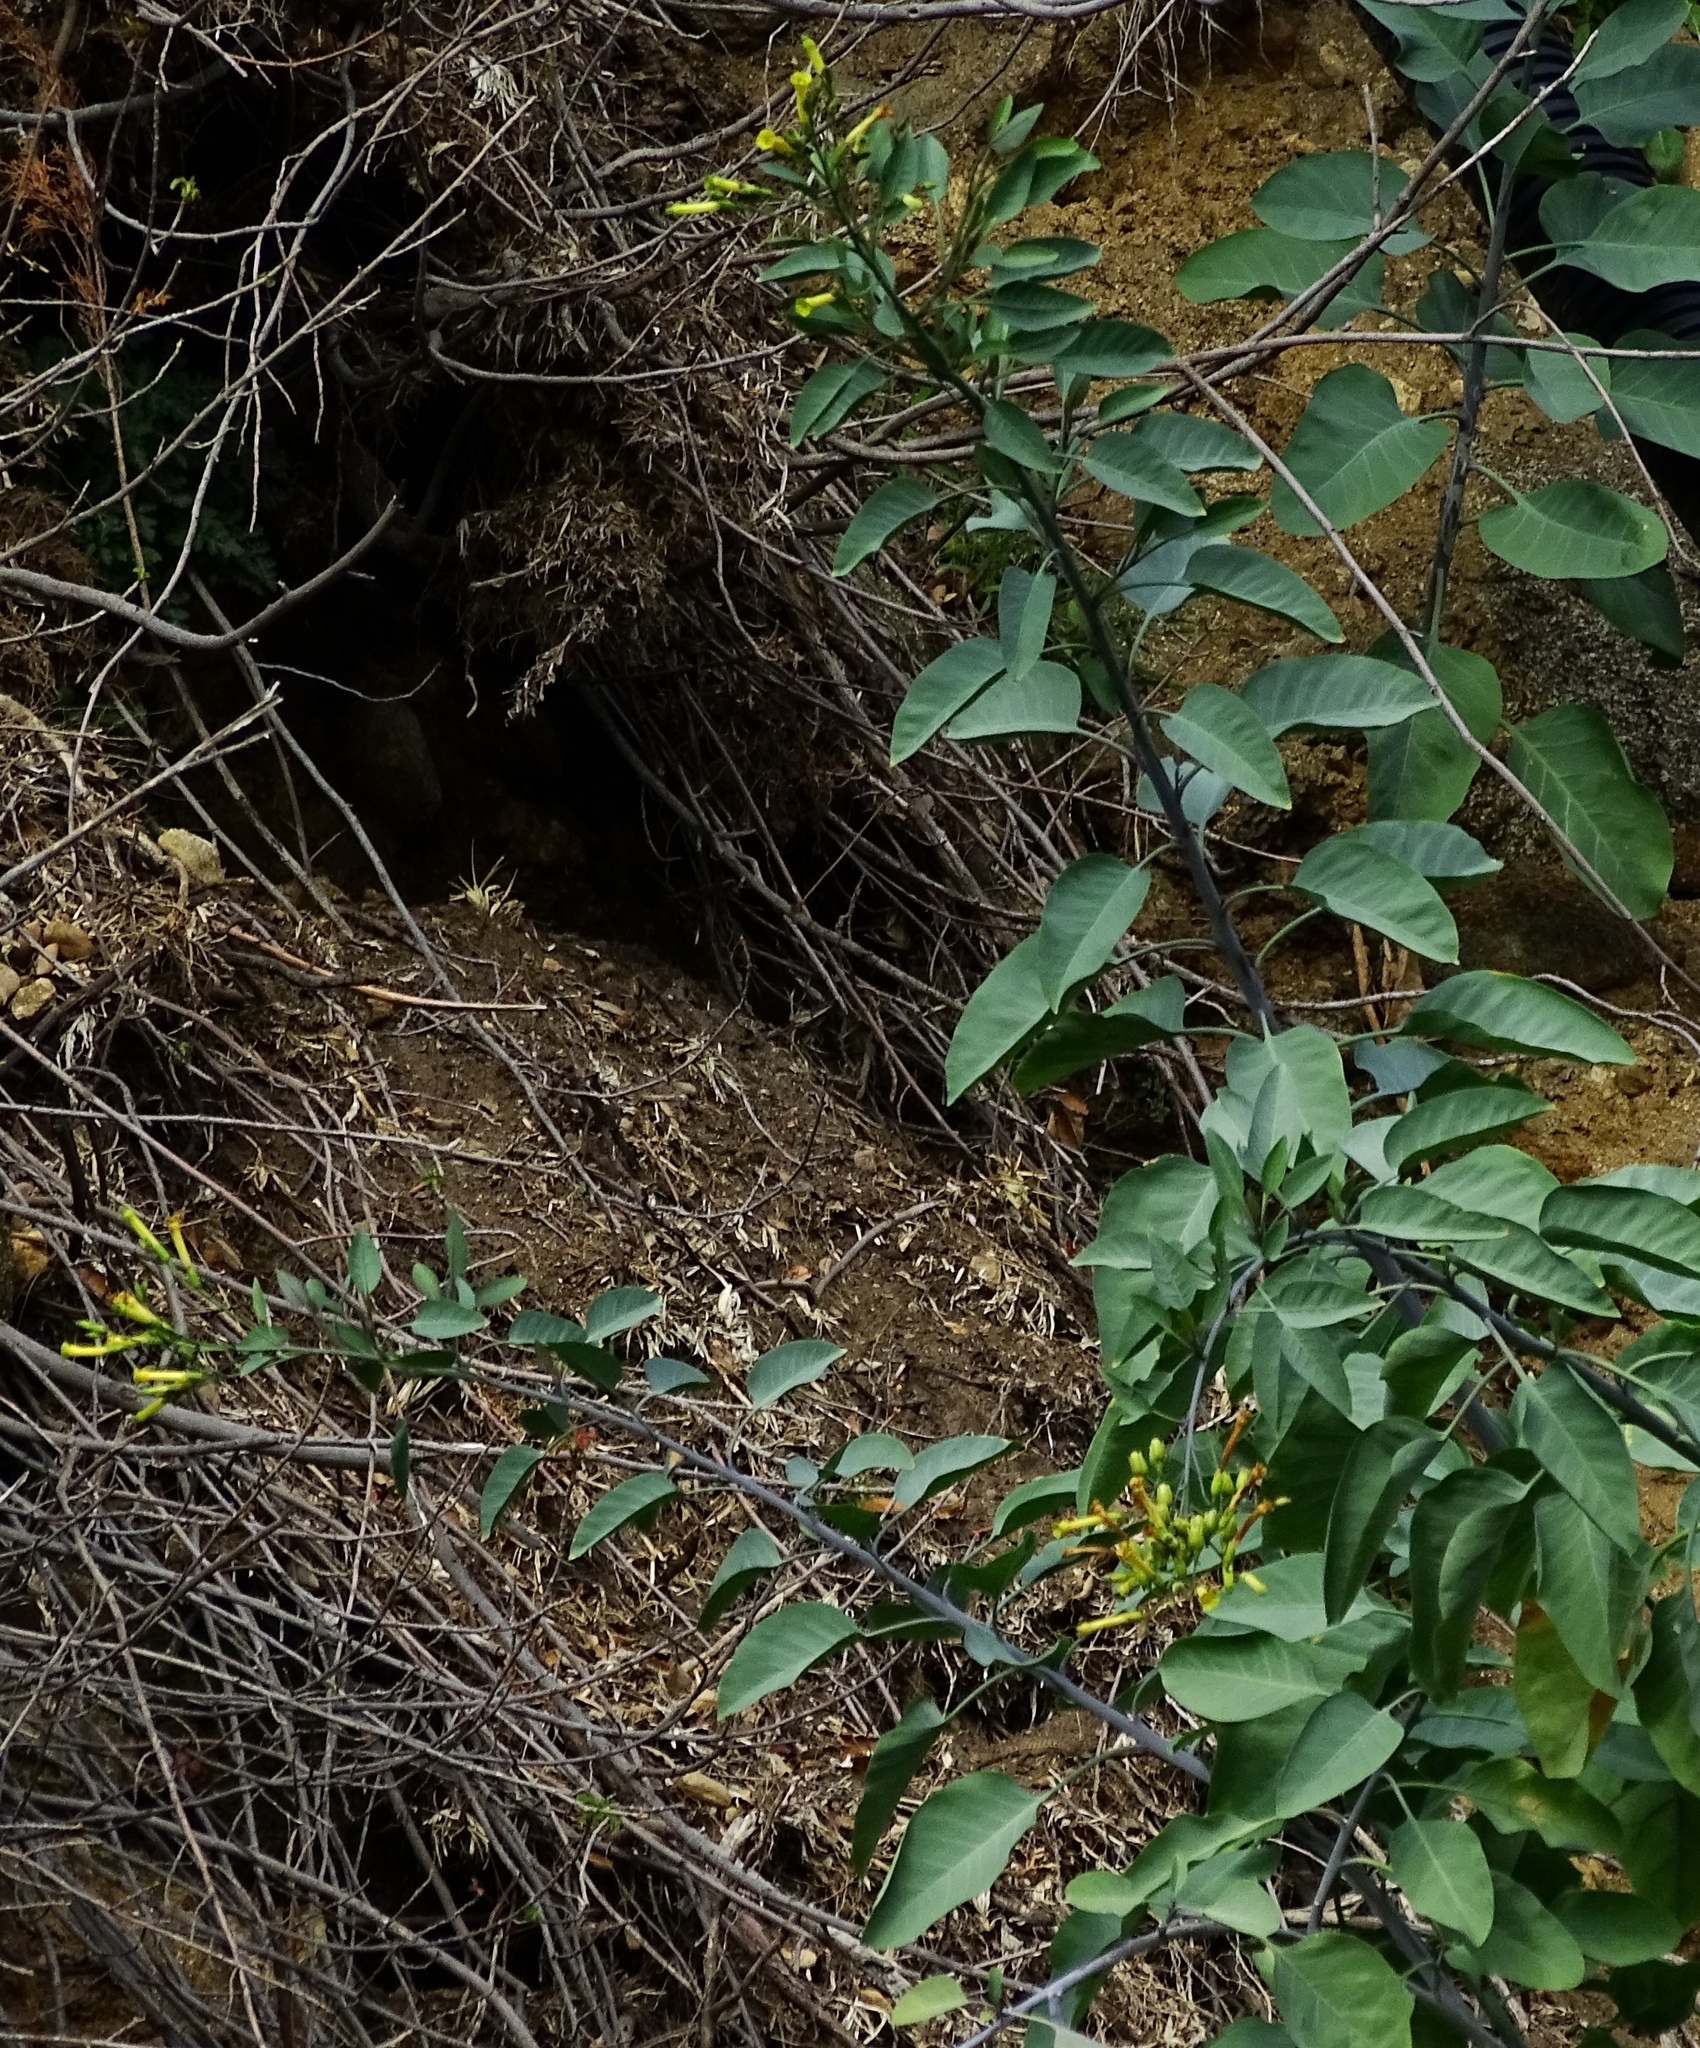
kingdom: Plantae
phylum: Tracheophyta
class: Magnoliopsida
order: Solanales
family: Solanaceae
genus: Nicotiana
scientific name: Nicotiana glauca
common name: Tree tobacco
